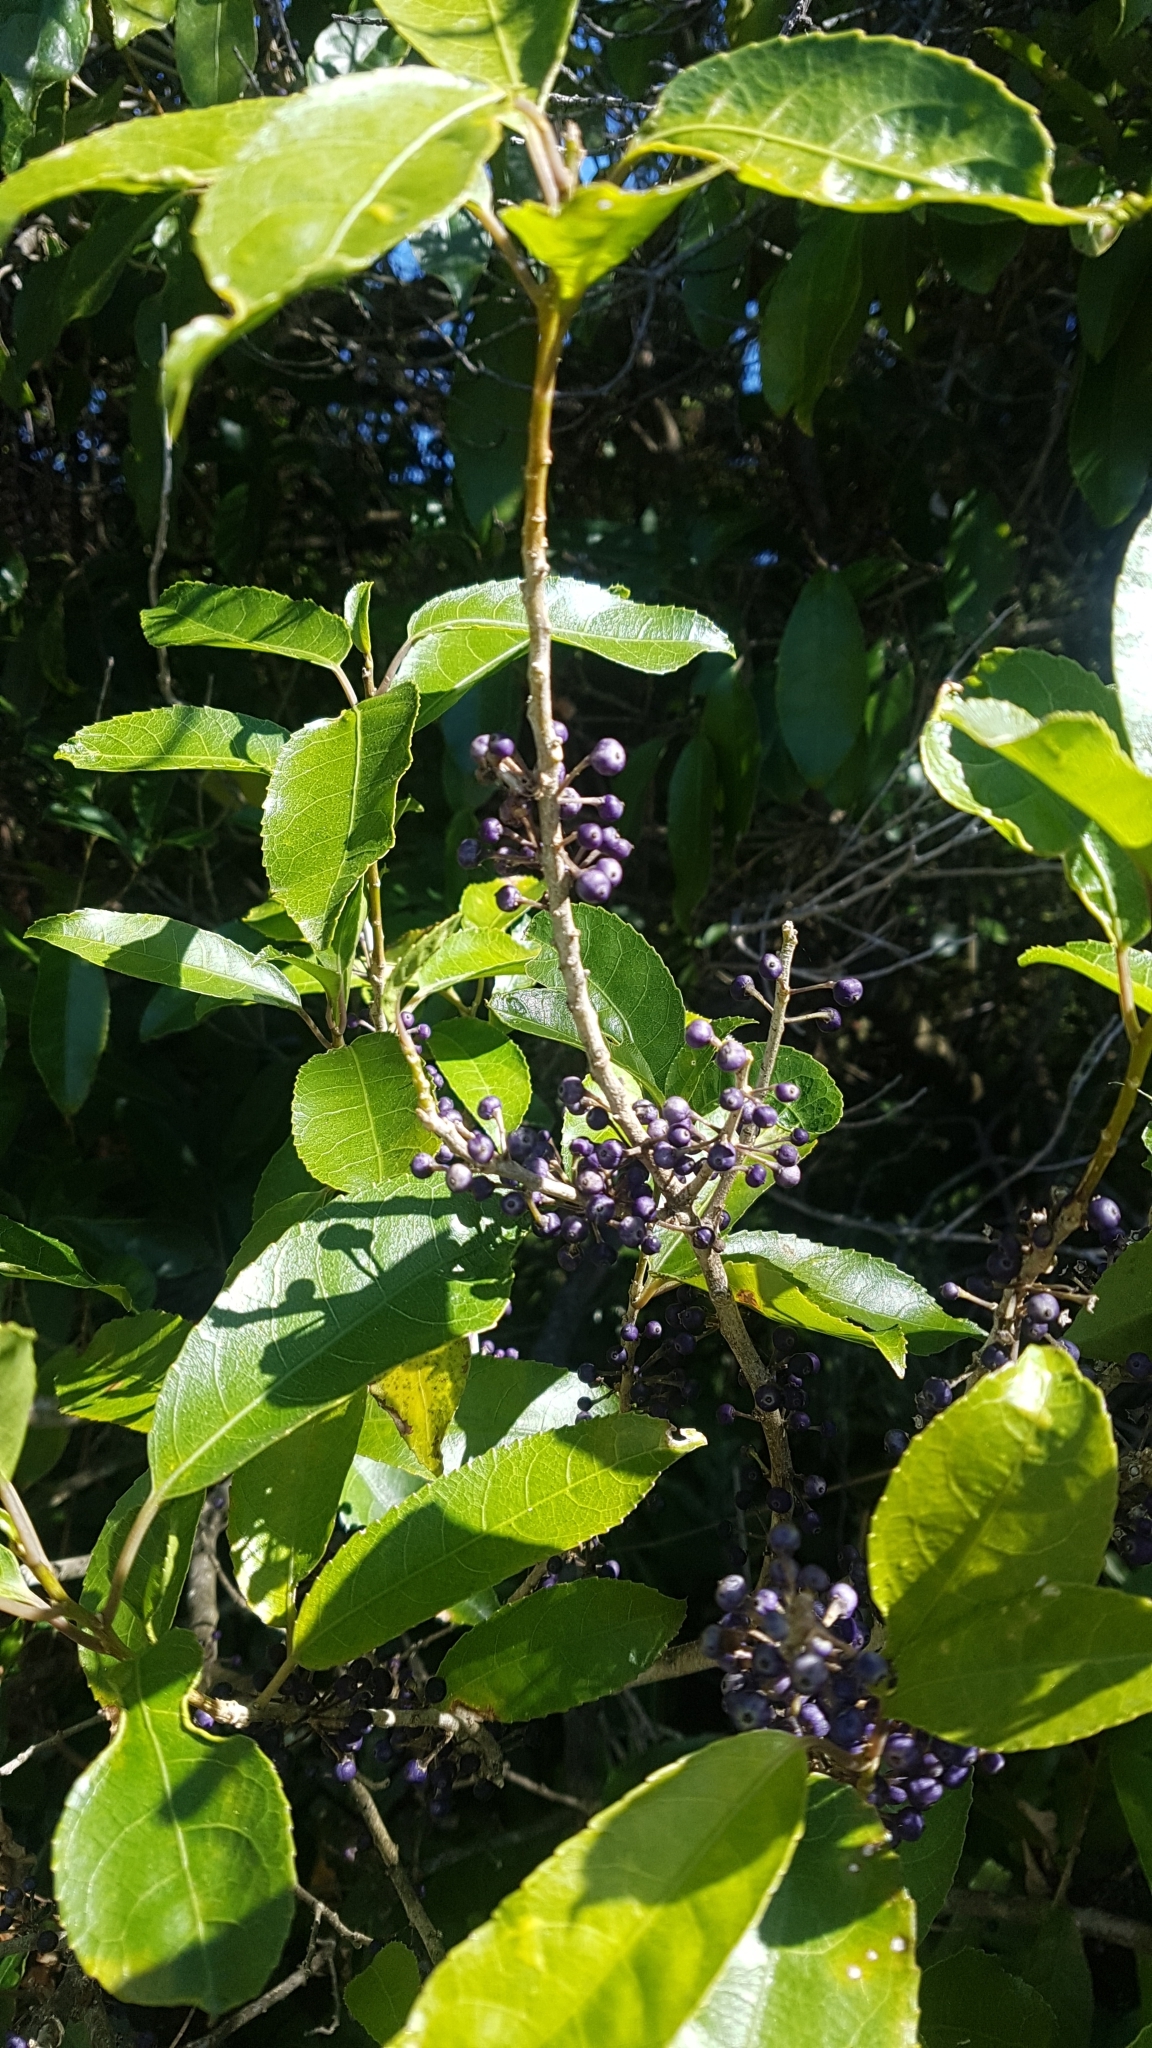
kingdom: Plantae
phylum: Tracheophyta
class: Magnoliopsida
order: Malpighiales
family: Violaceae
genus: Melicytus
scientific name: Melicytus ramiflorus
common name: Mahoe
